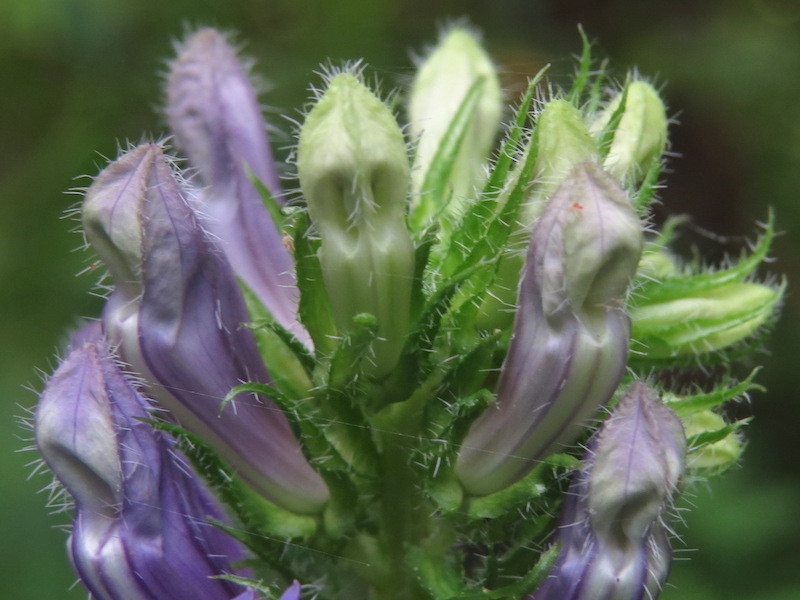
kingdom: Plantae
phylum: Tracheophyta
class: Magnoliopsida
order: Asterales
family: Campanulaceae
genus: Lobelia
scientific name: Lobelia siphilitica
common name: Great lobelia
